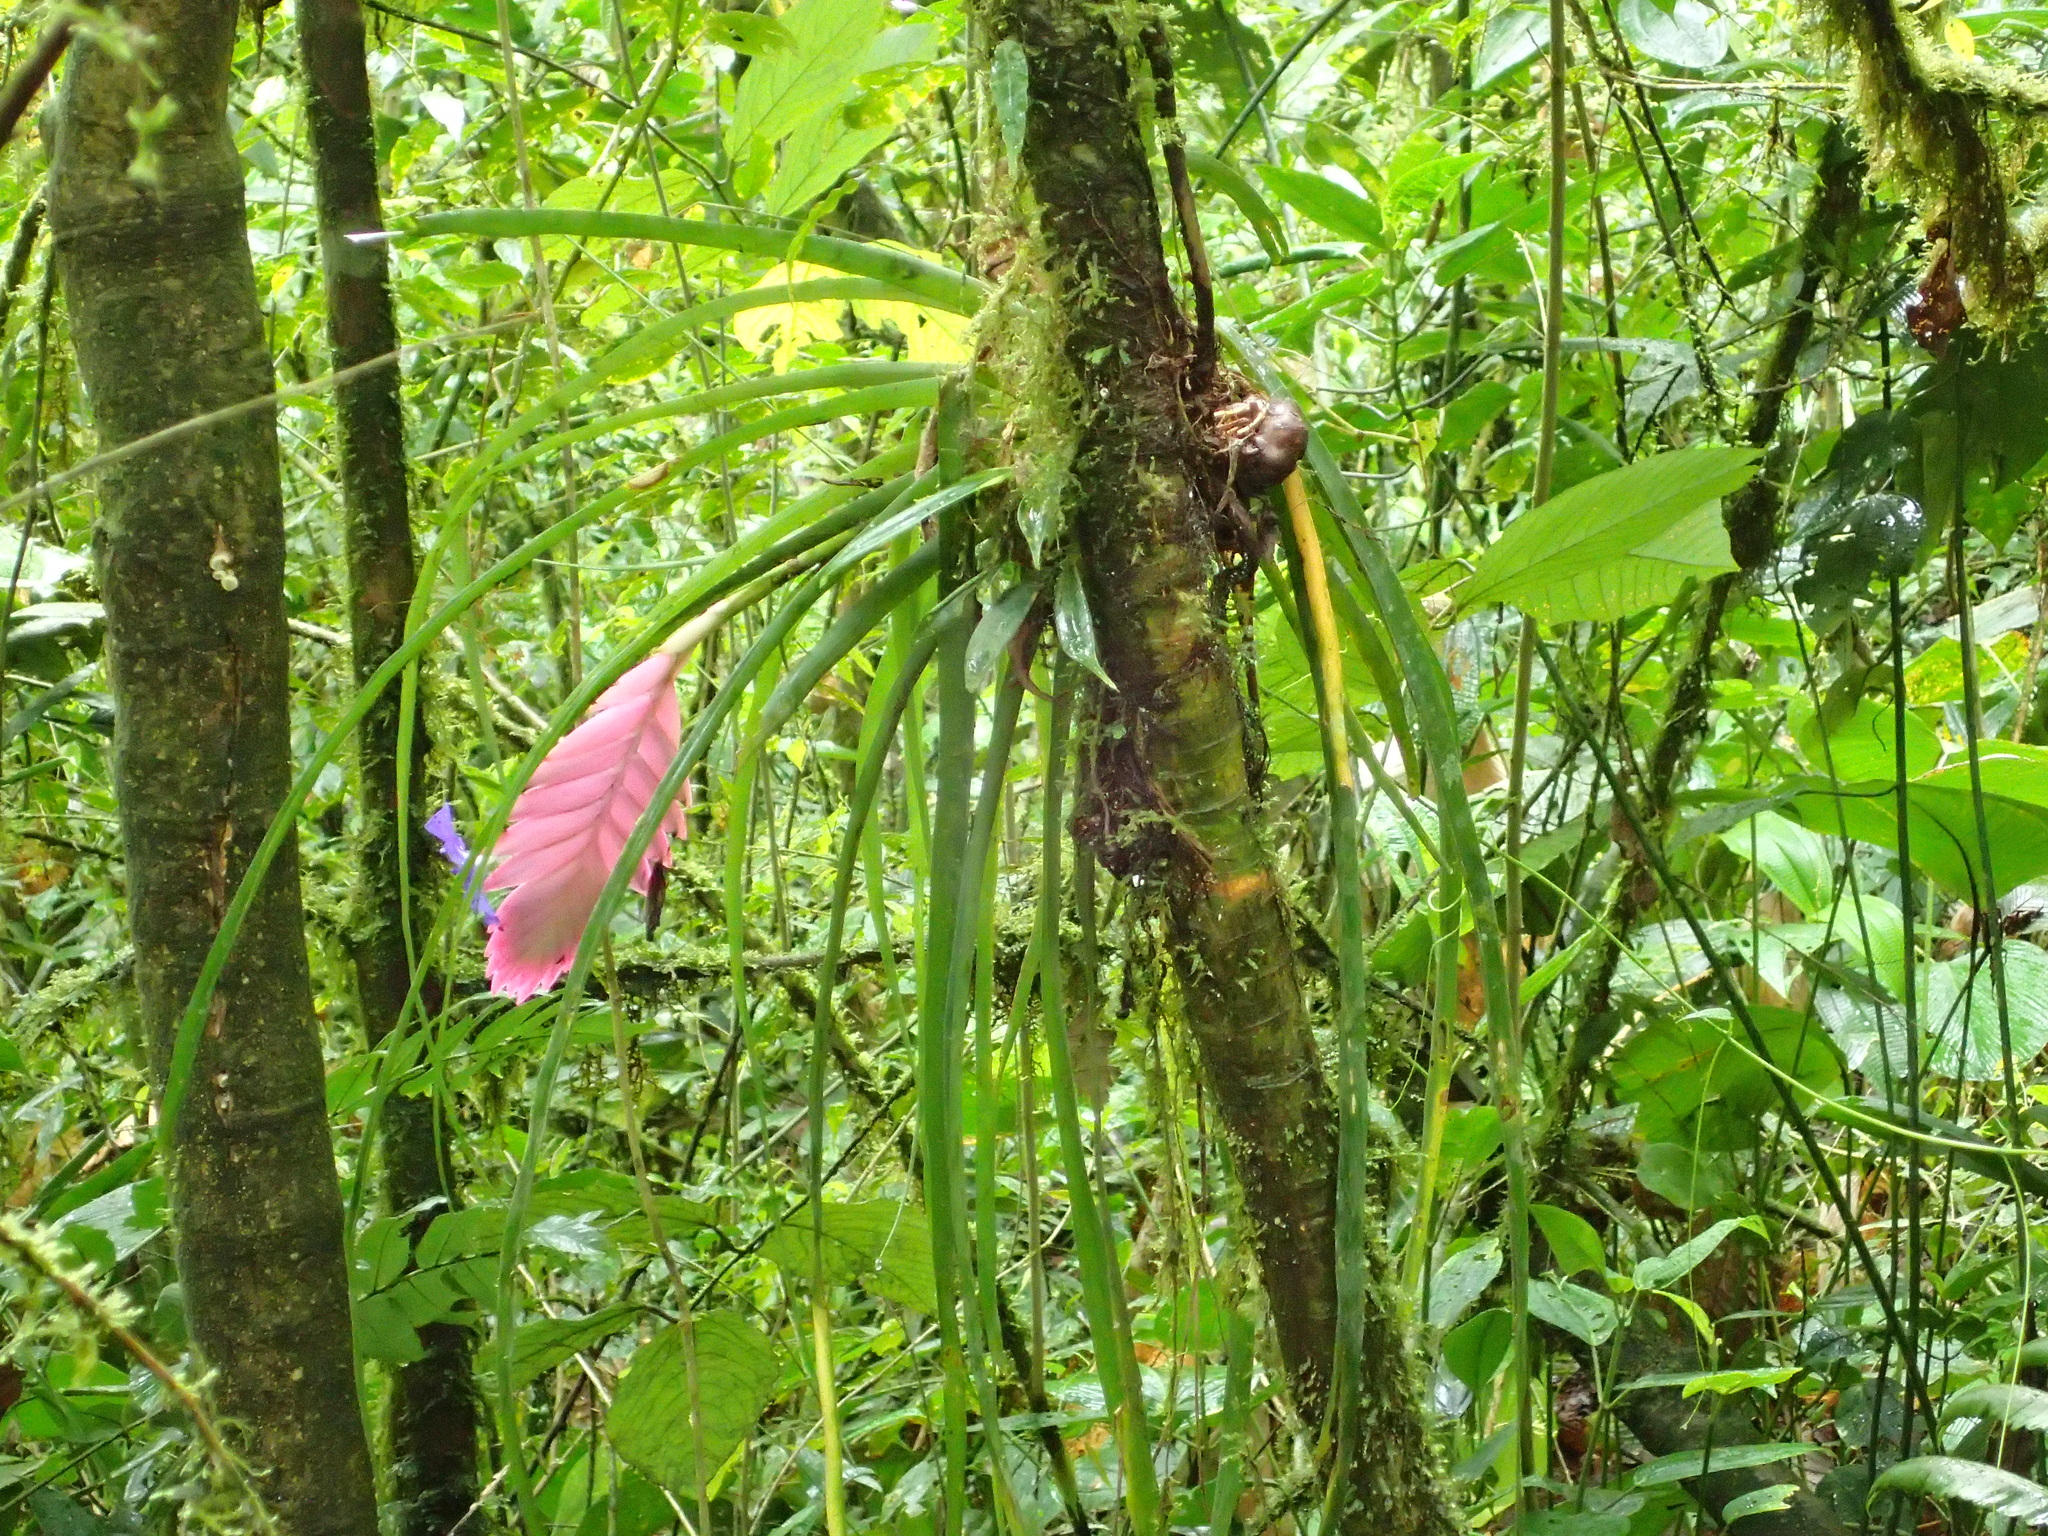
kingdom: Plantae
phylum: Tracheophyta
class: Liliopsida
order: Poales
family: Bromeliaceae
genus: Wallisia
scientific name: Wallisia cyanea
